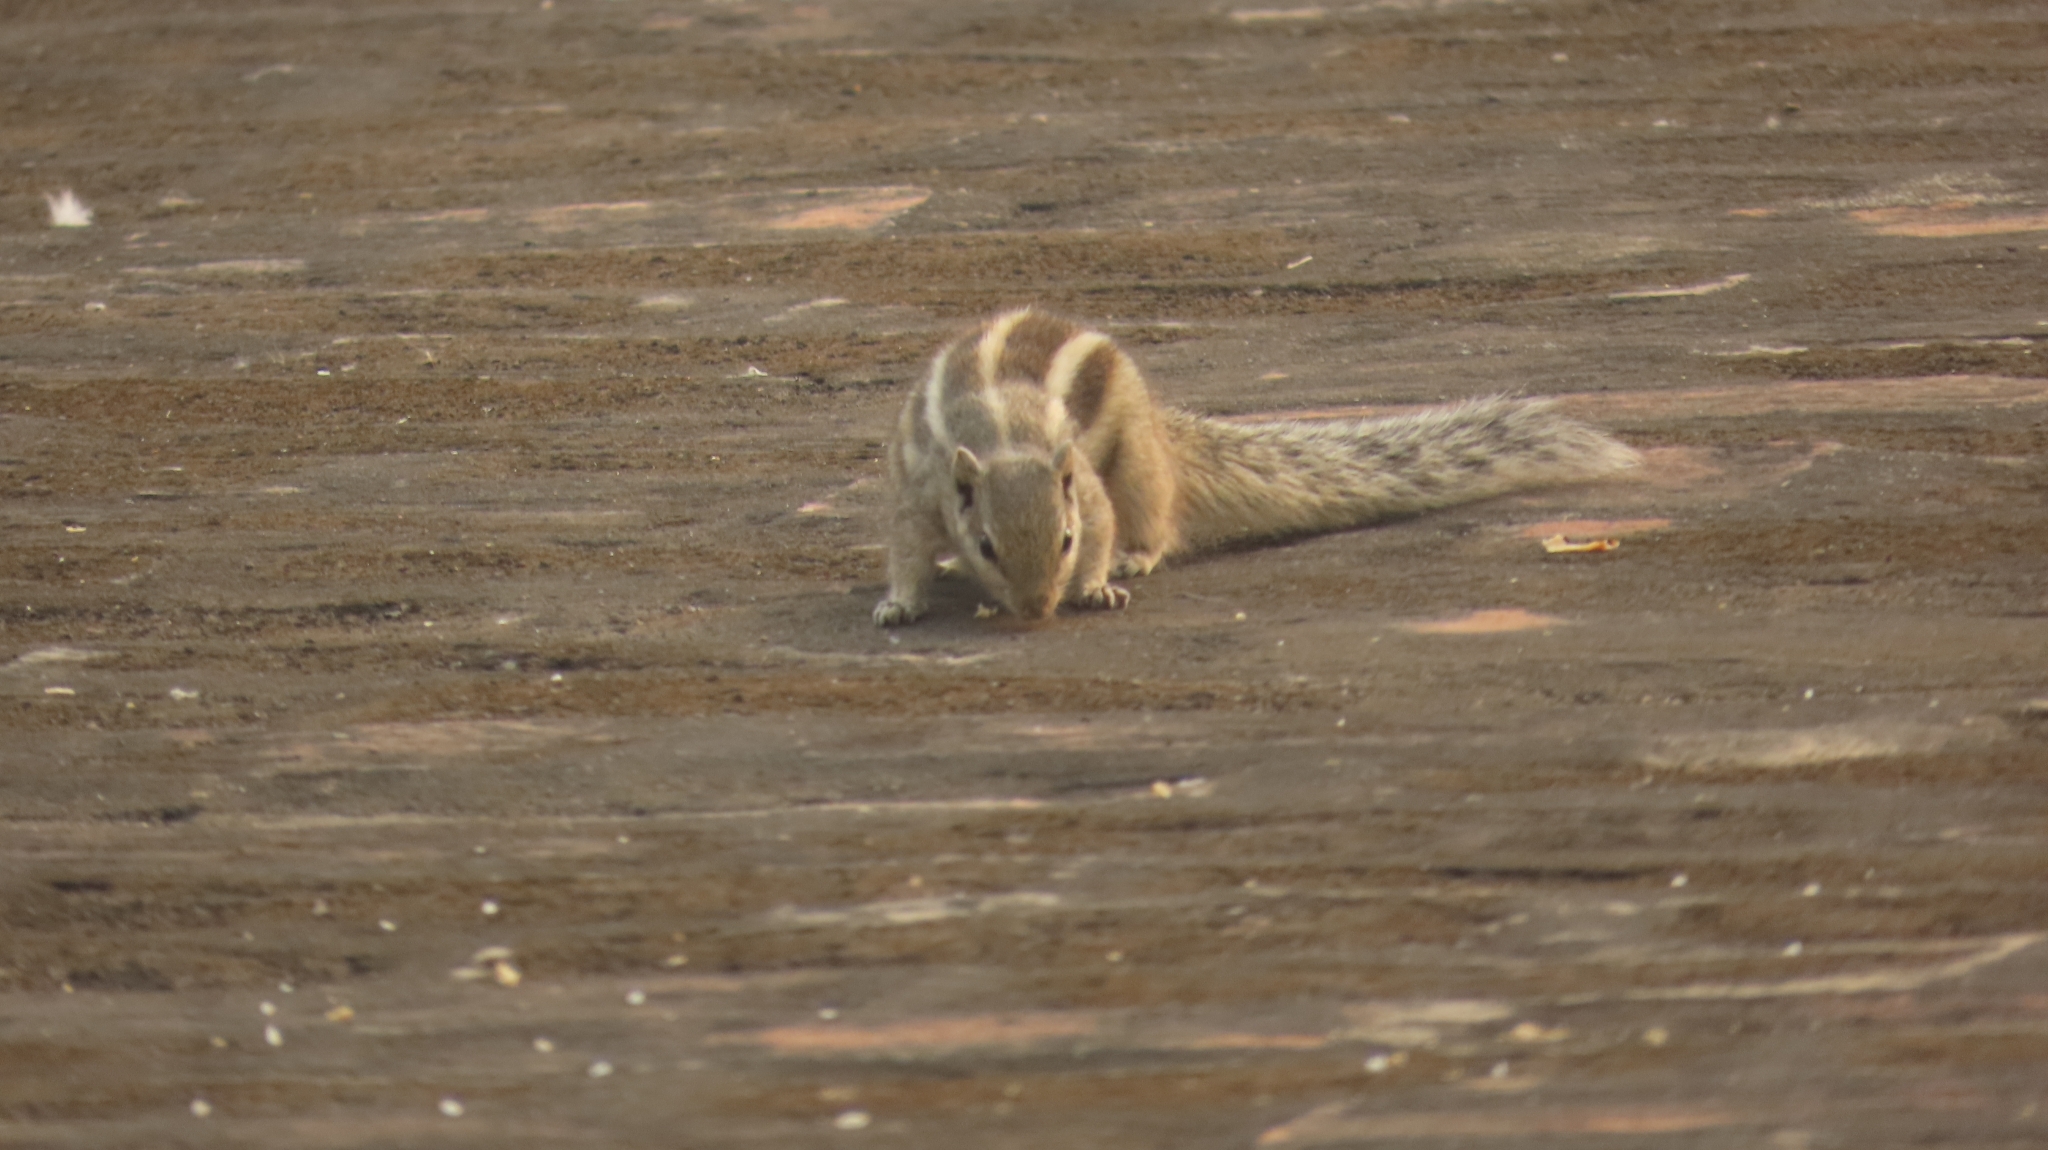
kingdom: Animalia
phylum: Chordata
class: Mammalia
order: Rodentia
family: Sciuridae
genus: Funambulus
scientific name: Funambulus pennantii
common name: Northern palm squirrel
